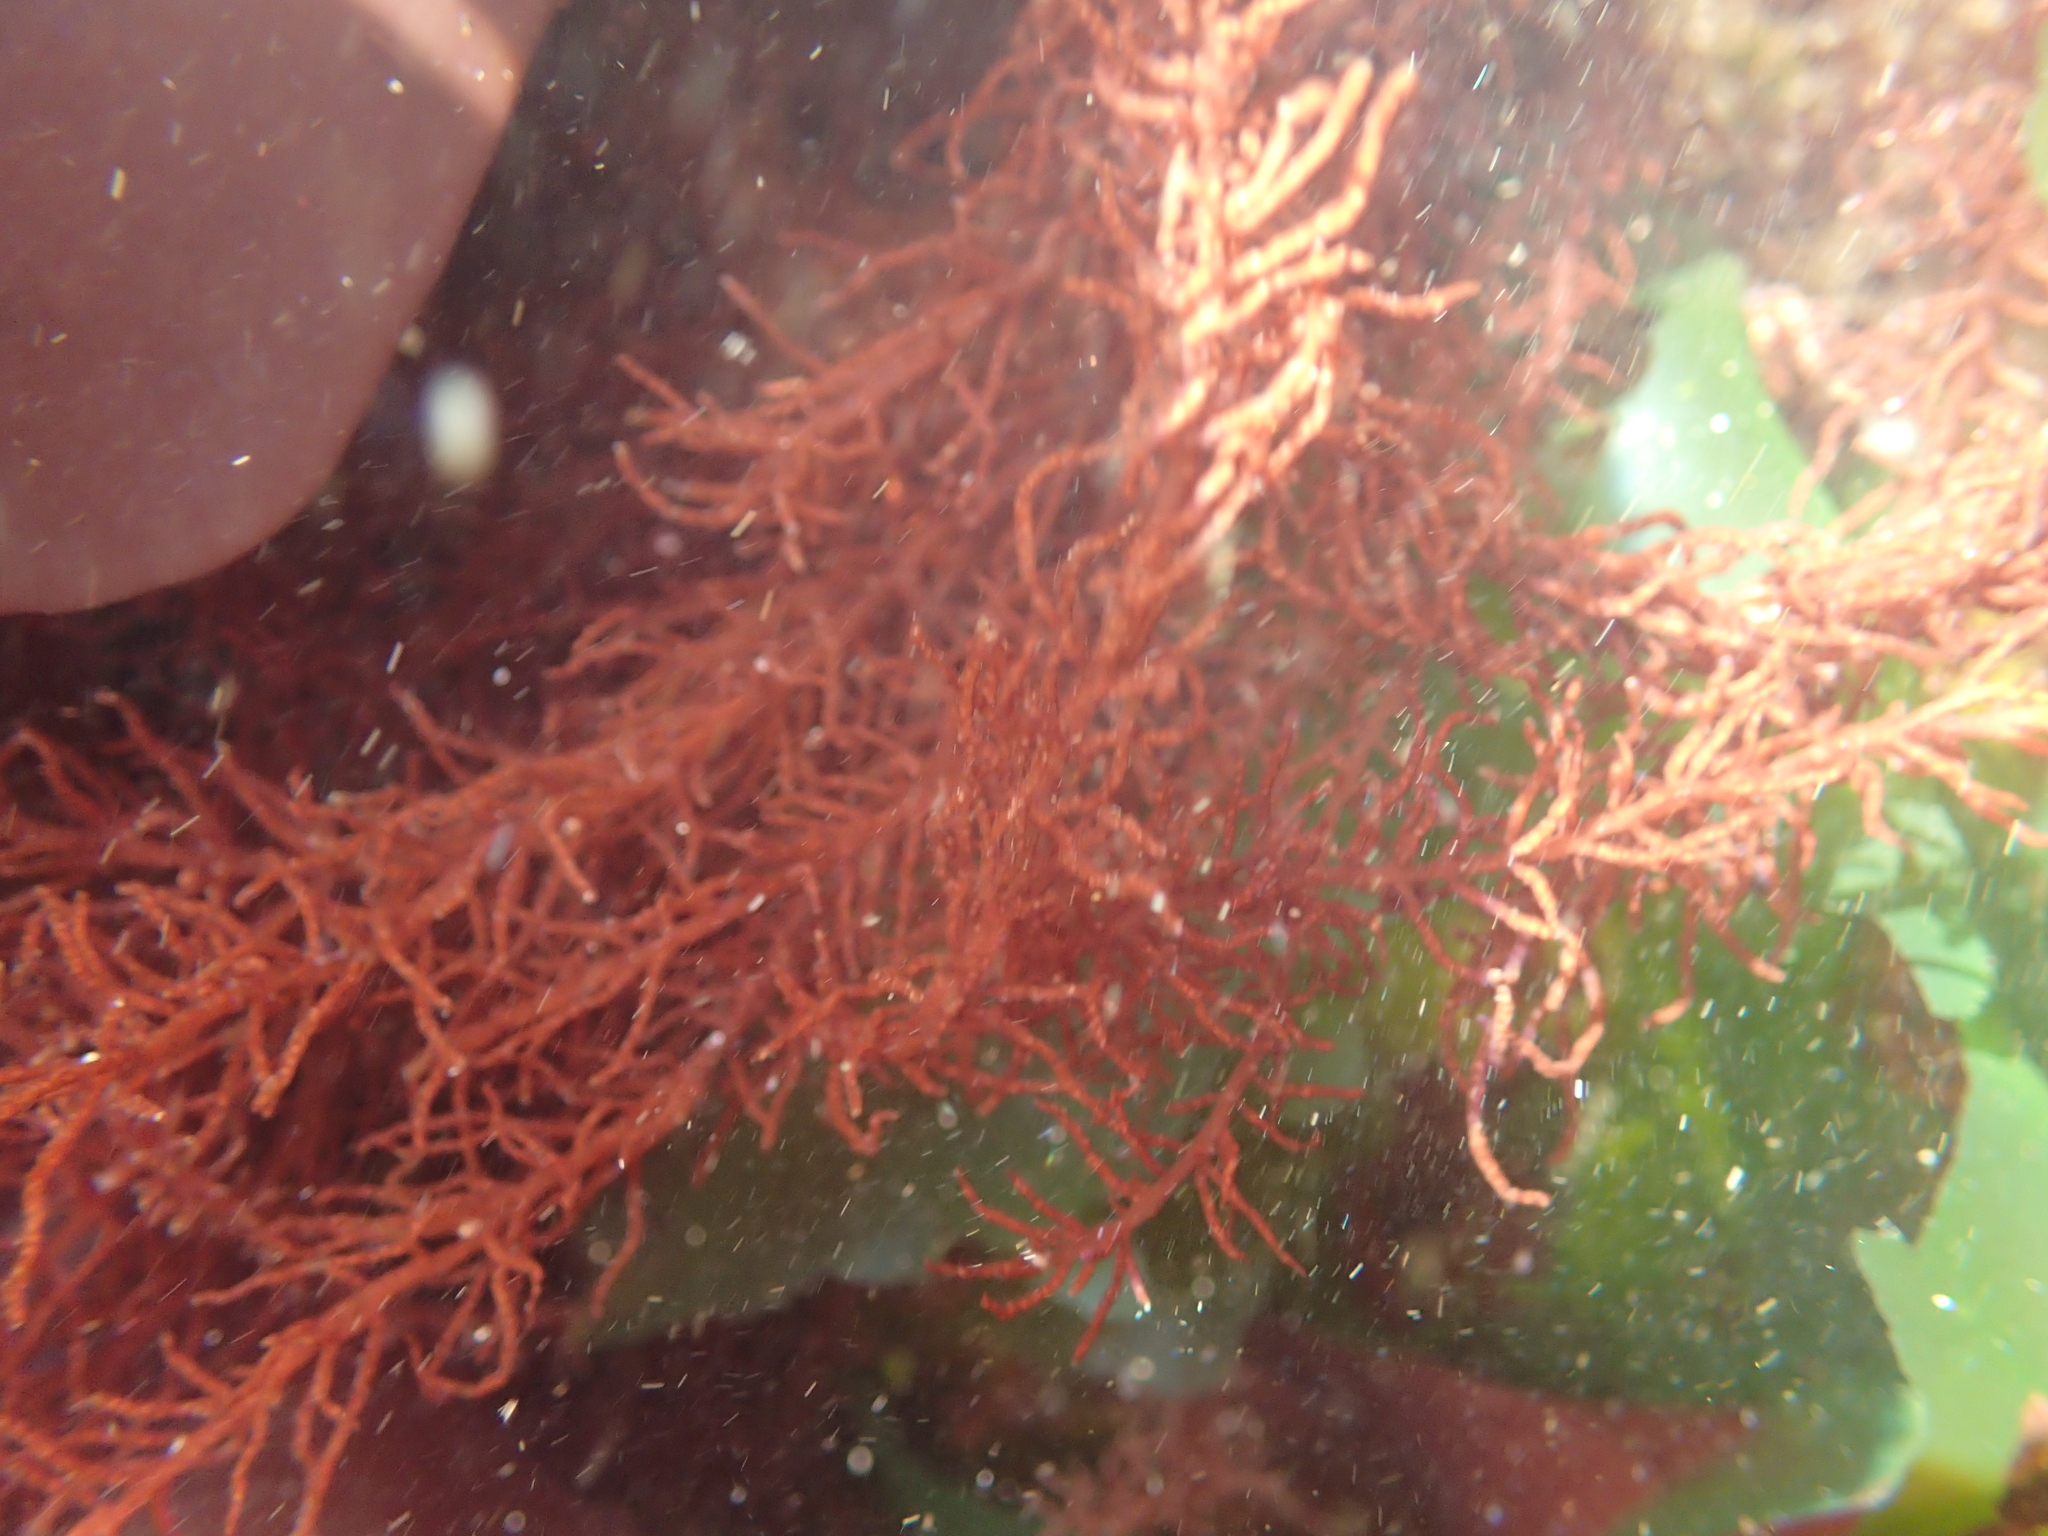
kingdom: Plantae
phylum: Rhodophyta
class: Florideophyceae
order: Gigartinales
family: Gloiosiphoniaceae
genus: Gloiosiphonia
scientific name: Gloiosiphonia verticillaris
